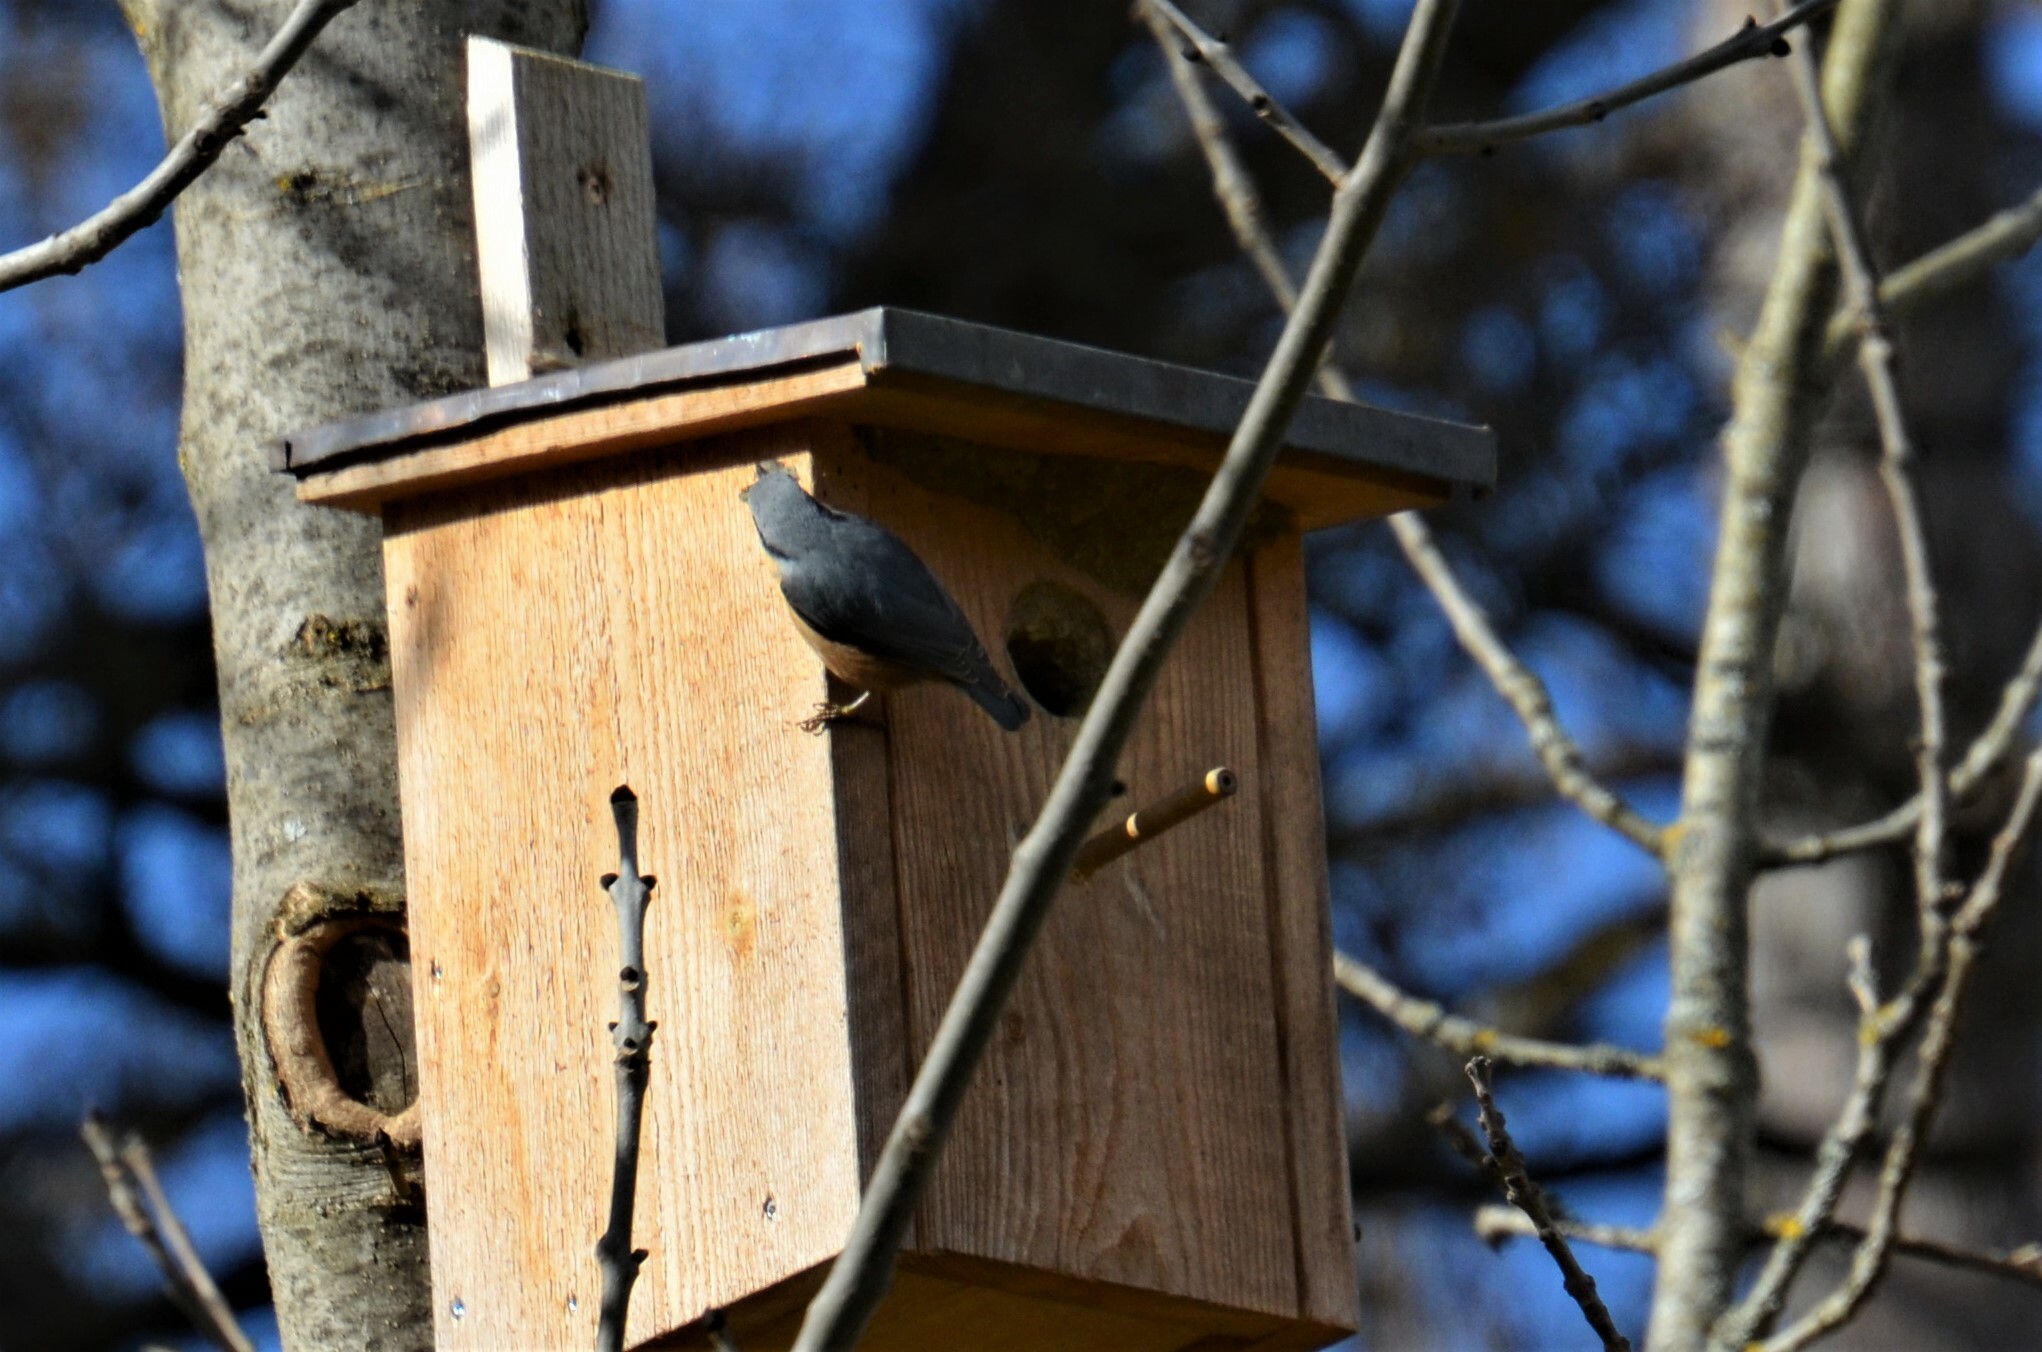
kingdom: Animalia
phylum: Chordata
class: Aves
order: Passeriformes
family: Sittidae
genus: Sitta
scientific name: Sitta europaea
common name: Eurasian nuthatch
